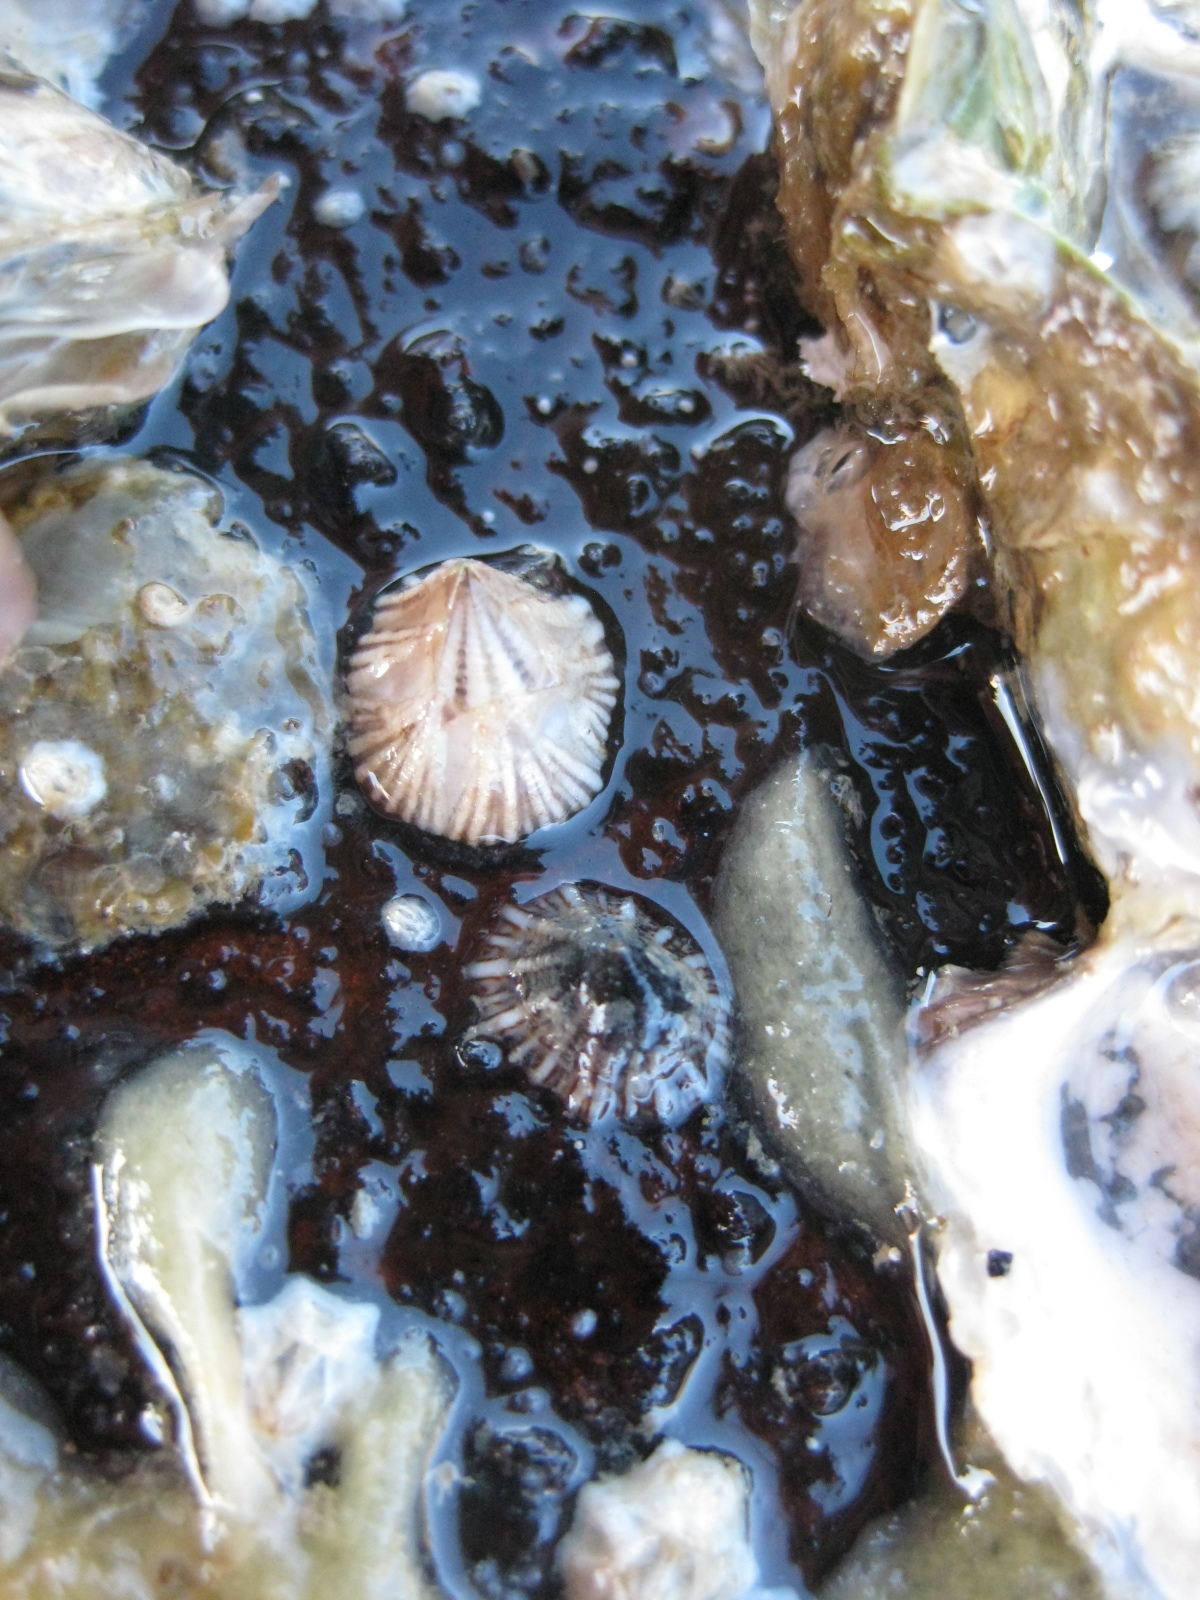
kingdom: Animalia
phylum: Arthropoda
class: Maxillopoda
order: Sessilia
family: Balanidae
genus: Balanus
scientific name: Balanus trigonus
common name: Triangle barnacle
